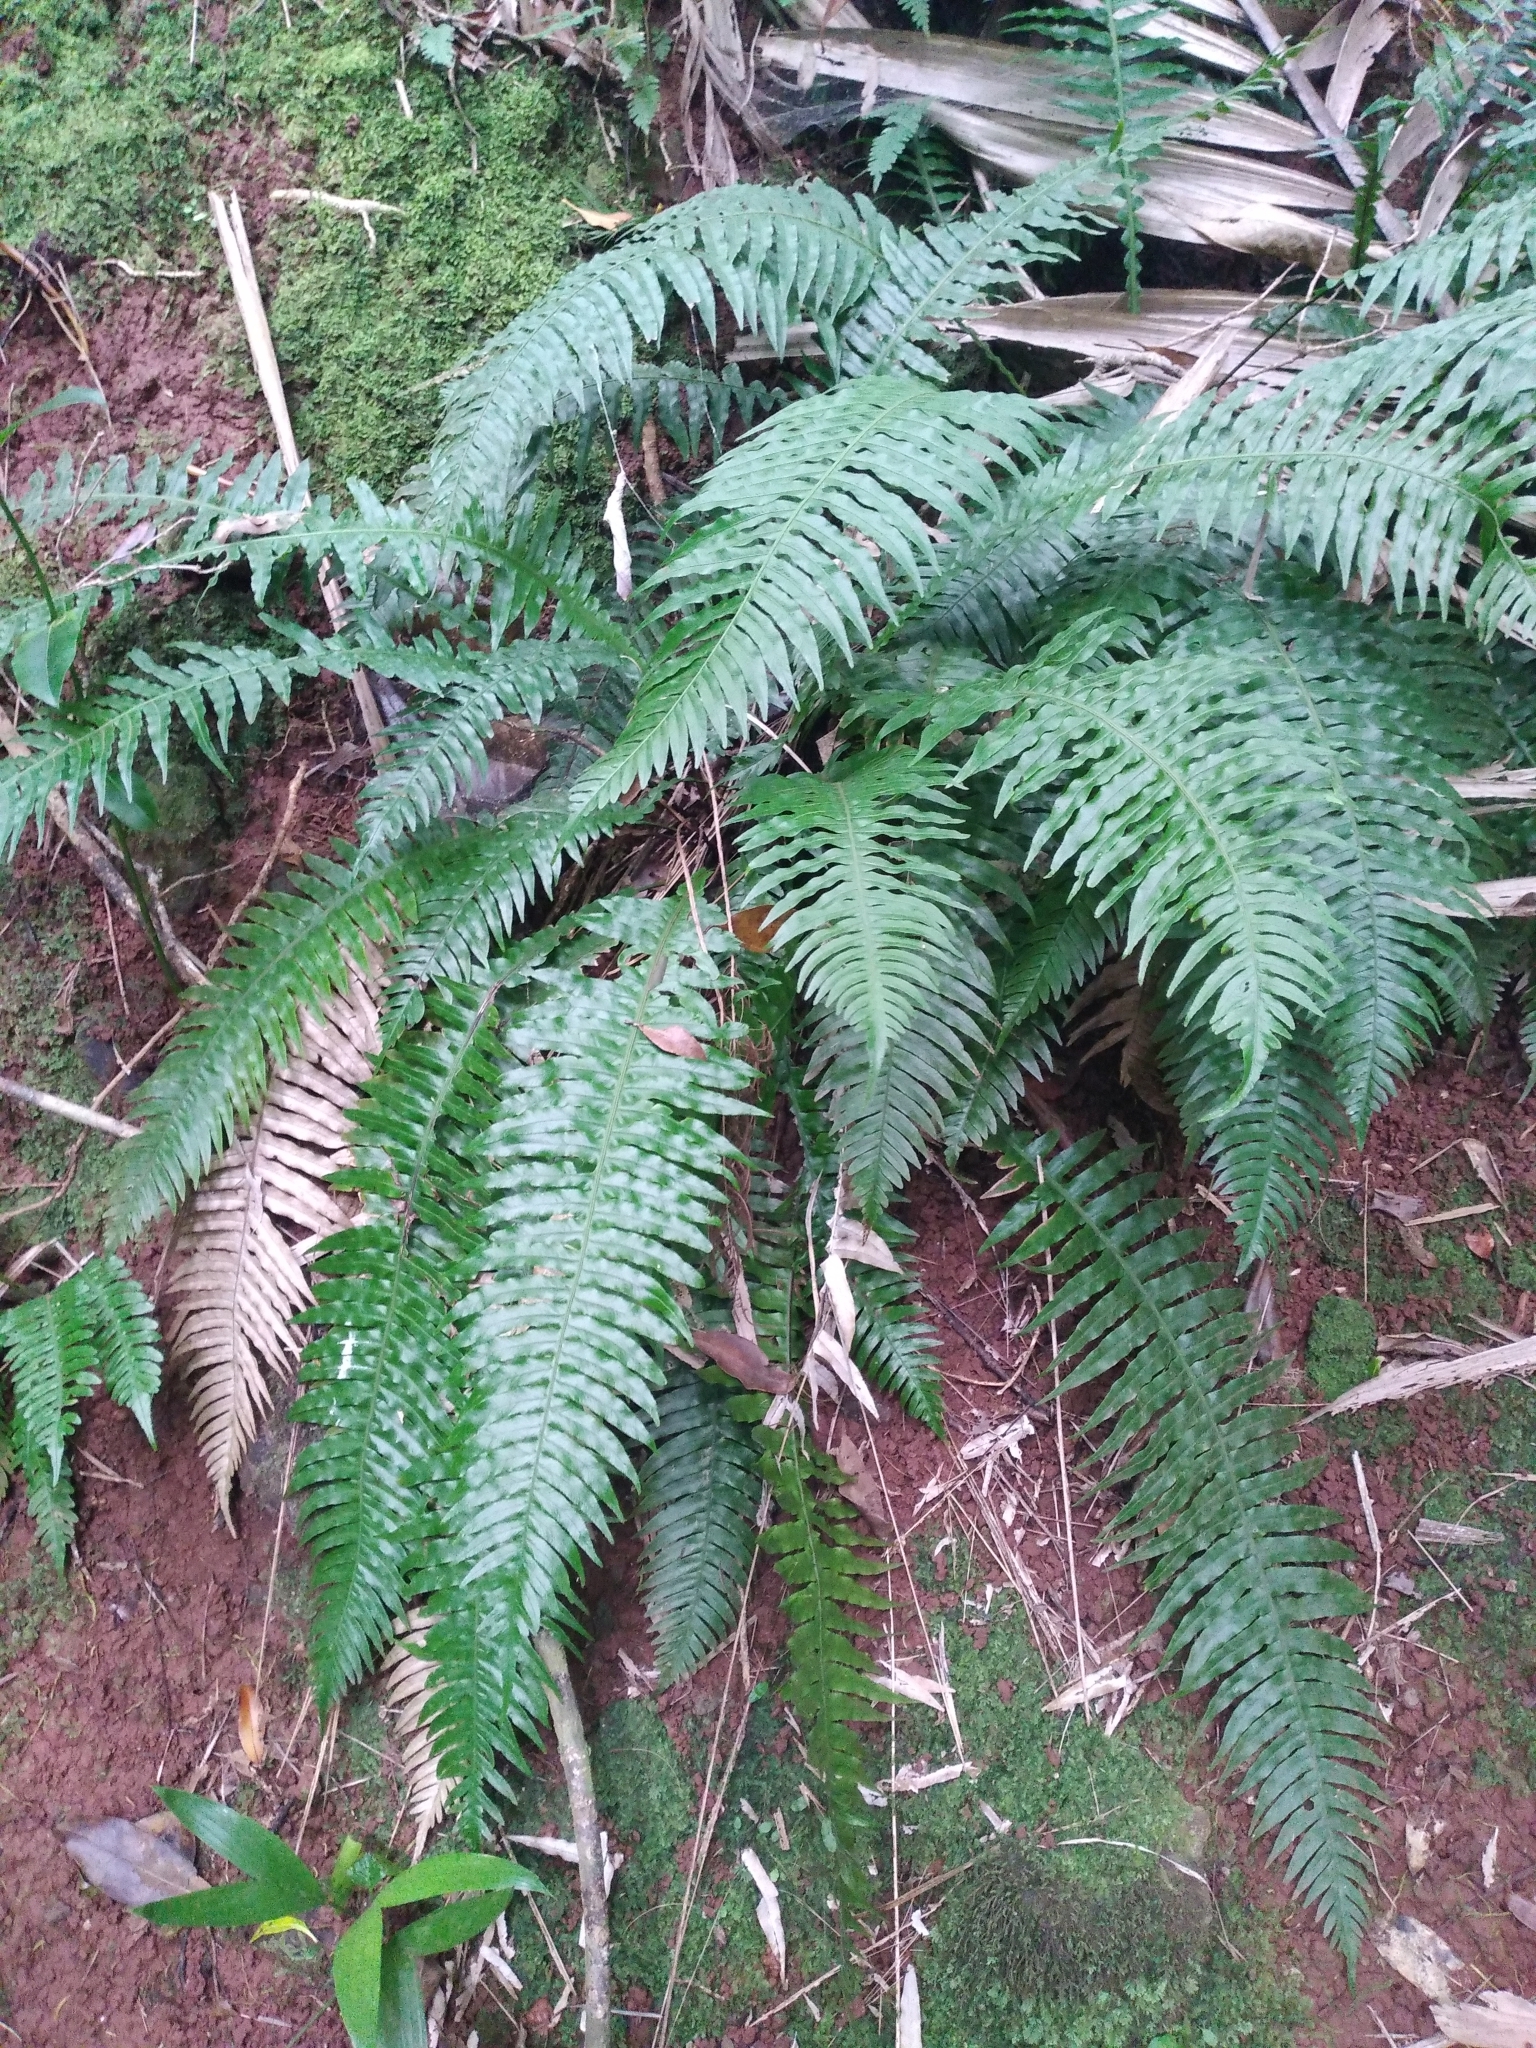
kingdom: Plantae
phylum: Tracheophyta
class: Polypodiopsida
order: Polypodiales
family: Blechnaceae
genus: Austroblechnum
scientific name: Austroblechnum norfolkianum
